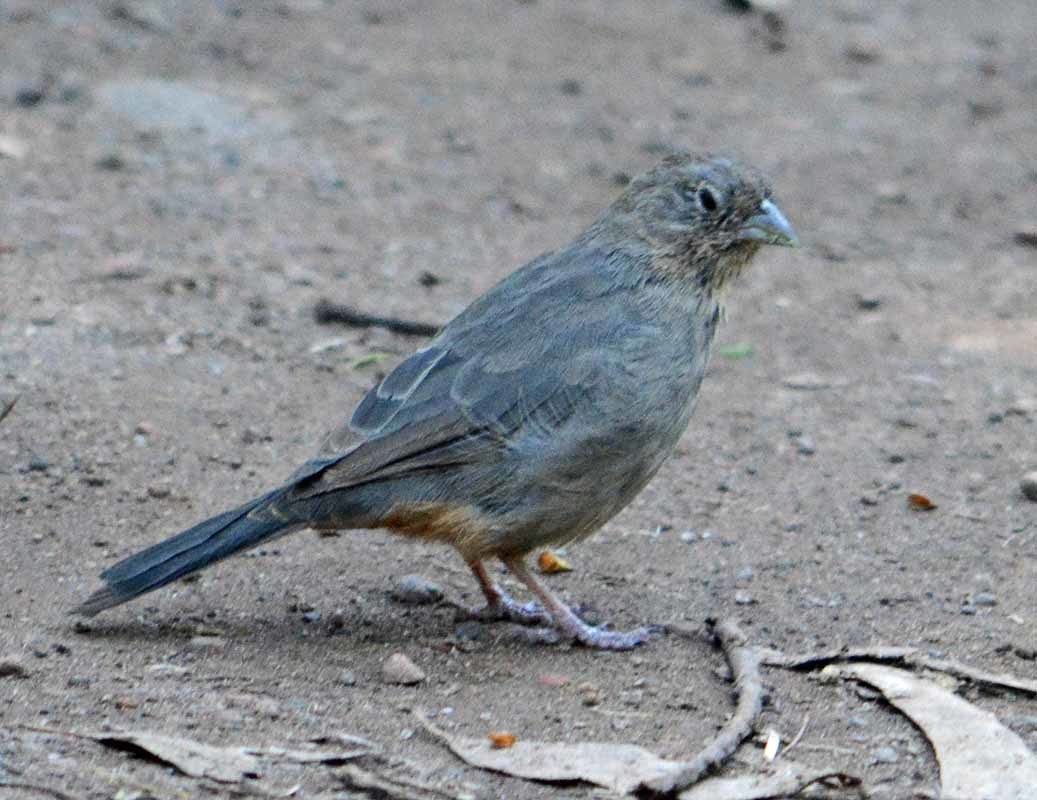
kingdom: Animalia
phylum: Chordata
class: Aves
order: Passeriformes
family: Passerellidae
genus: Melozone
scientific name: Melozone fusca
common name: Canyon towhee
